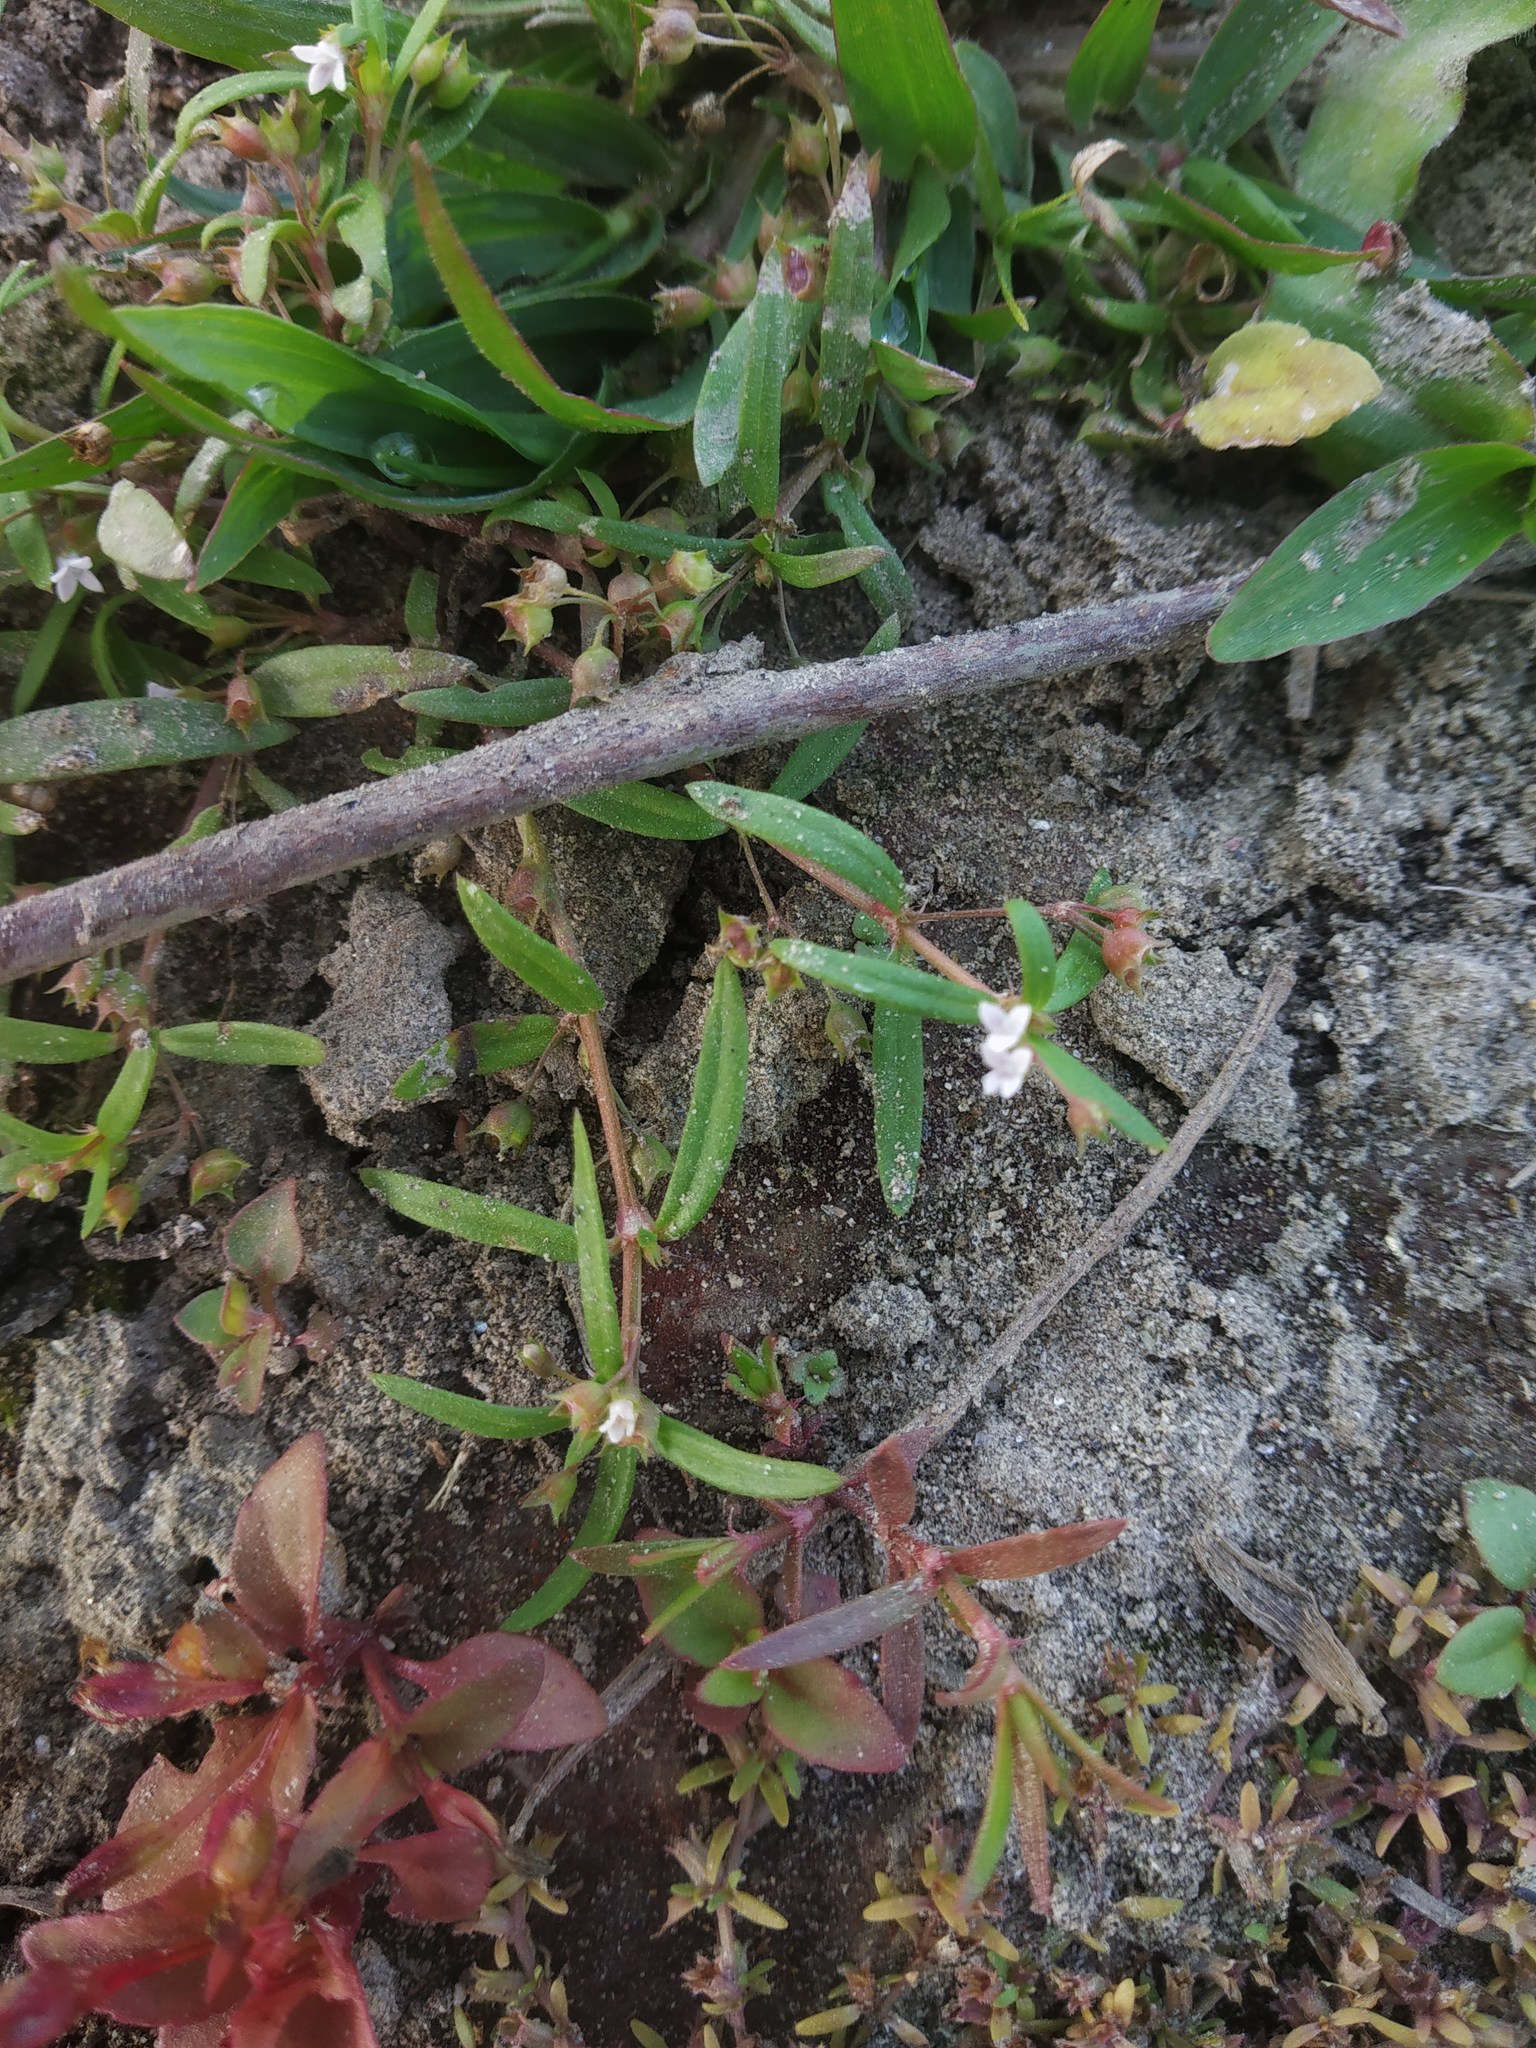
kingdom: Plantae
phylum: Tracheophyta
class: Magnoliopsida
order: Lamiales
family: Linderniaceae
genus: Torenia
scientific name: Torenia crustacea
